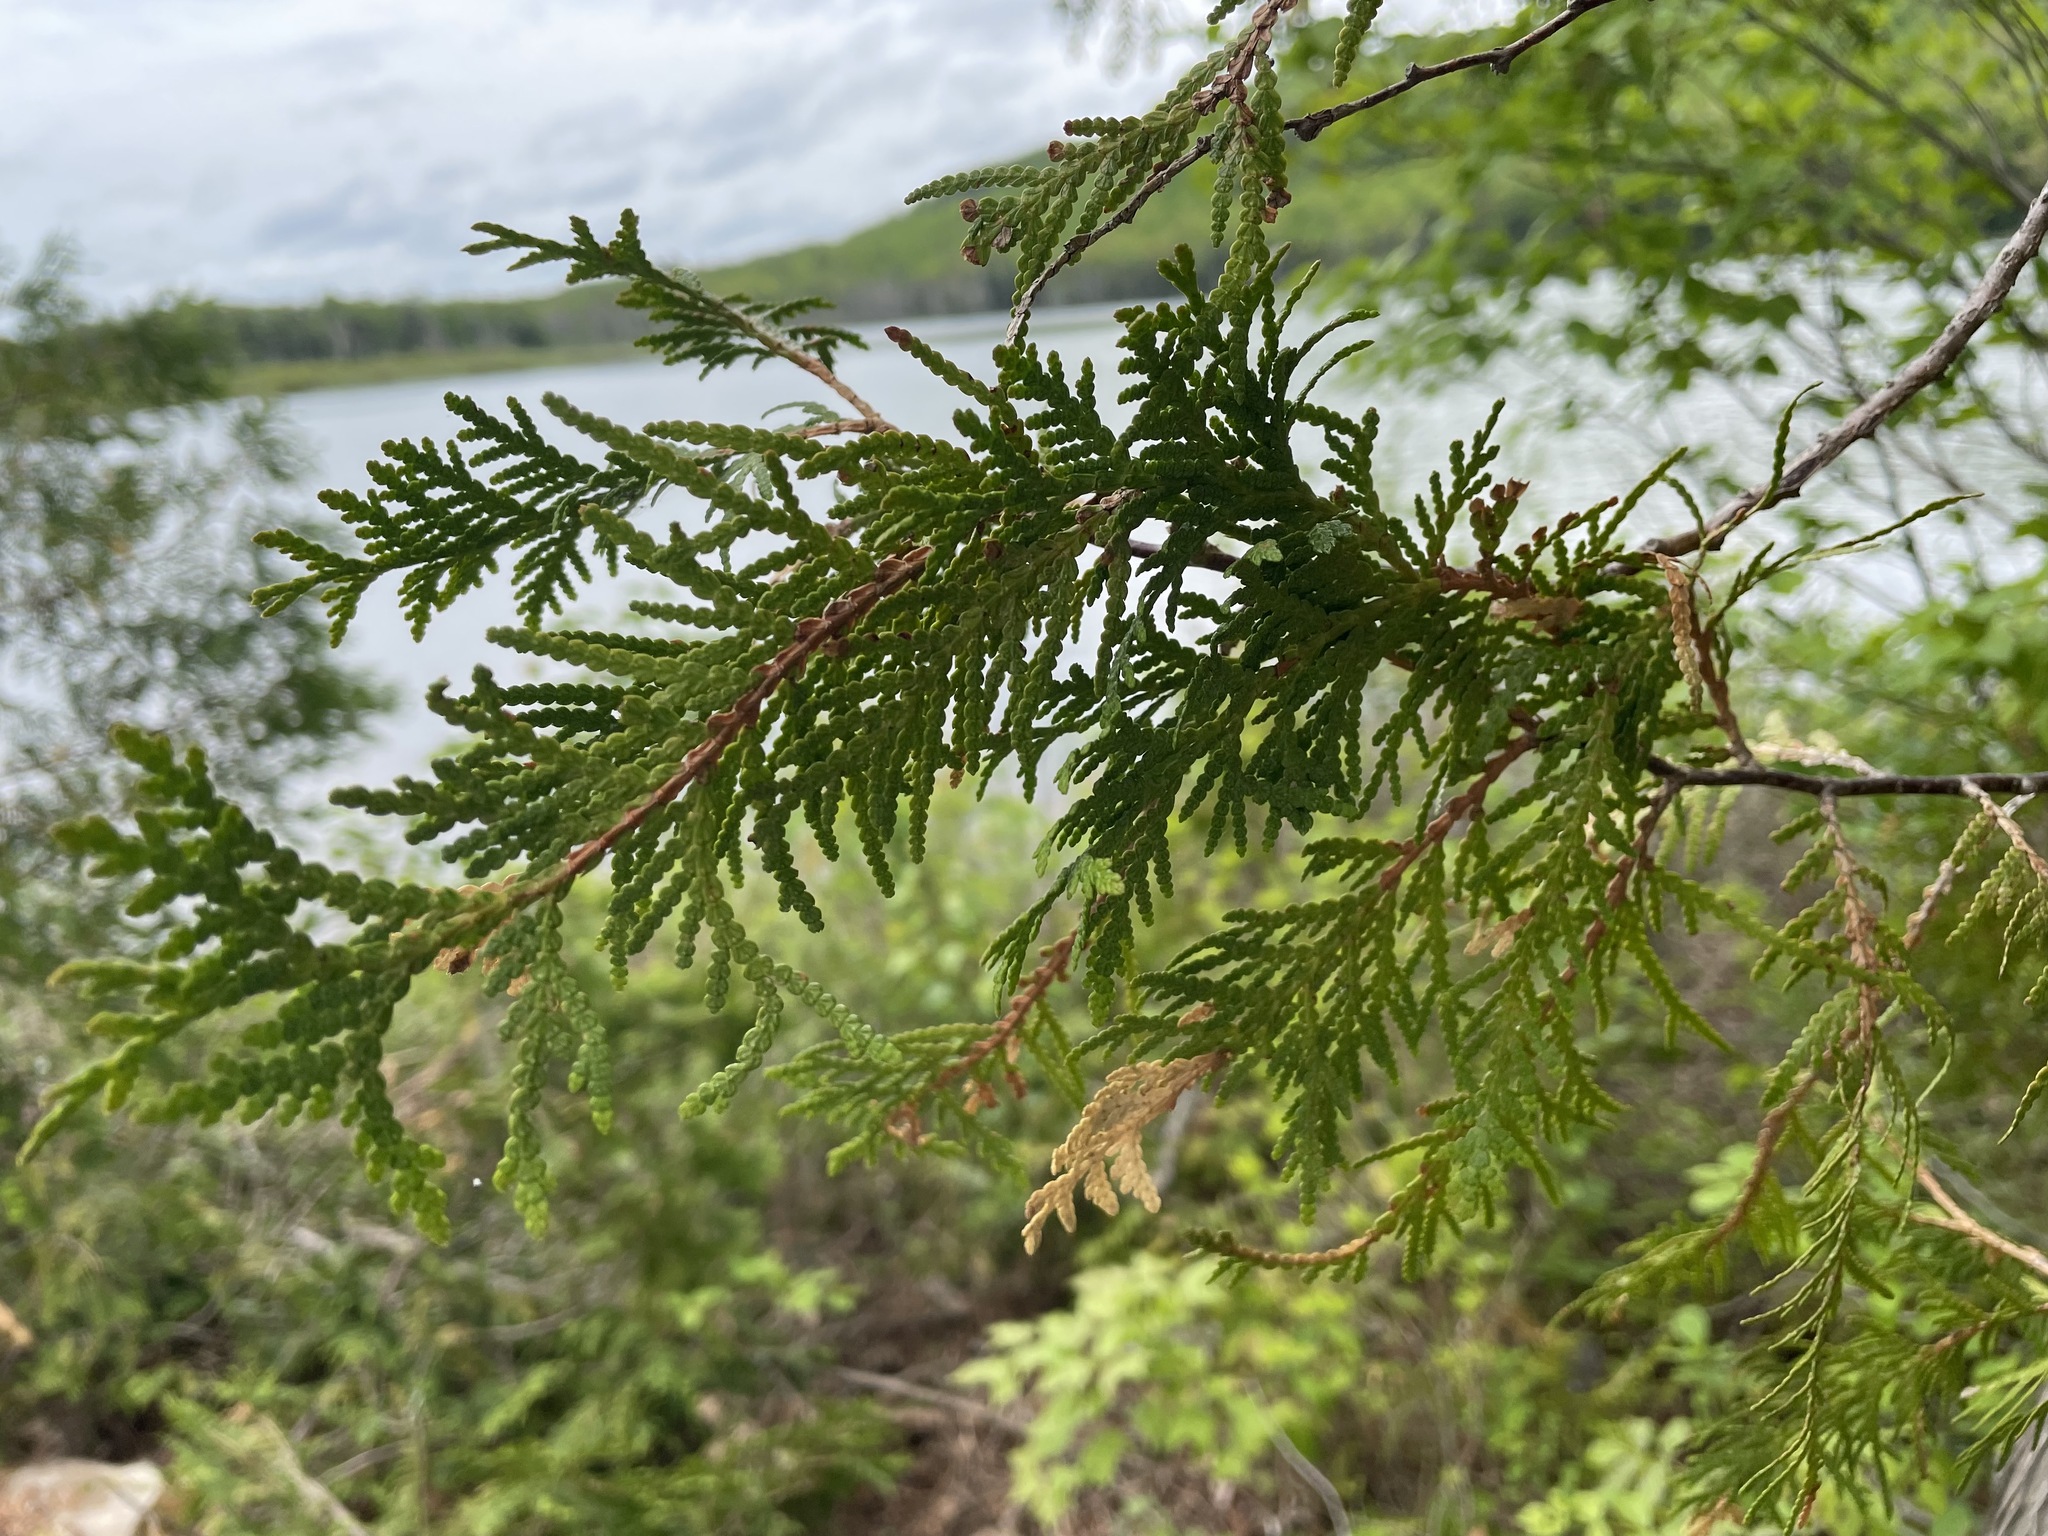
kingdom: Plantae
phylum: Tracheophyta
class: Pinopsida
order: Pinales
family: Cupressaceae
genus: Thuja
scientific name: Thuja occidentalis
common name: Northern white-cedar
